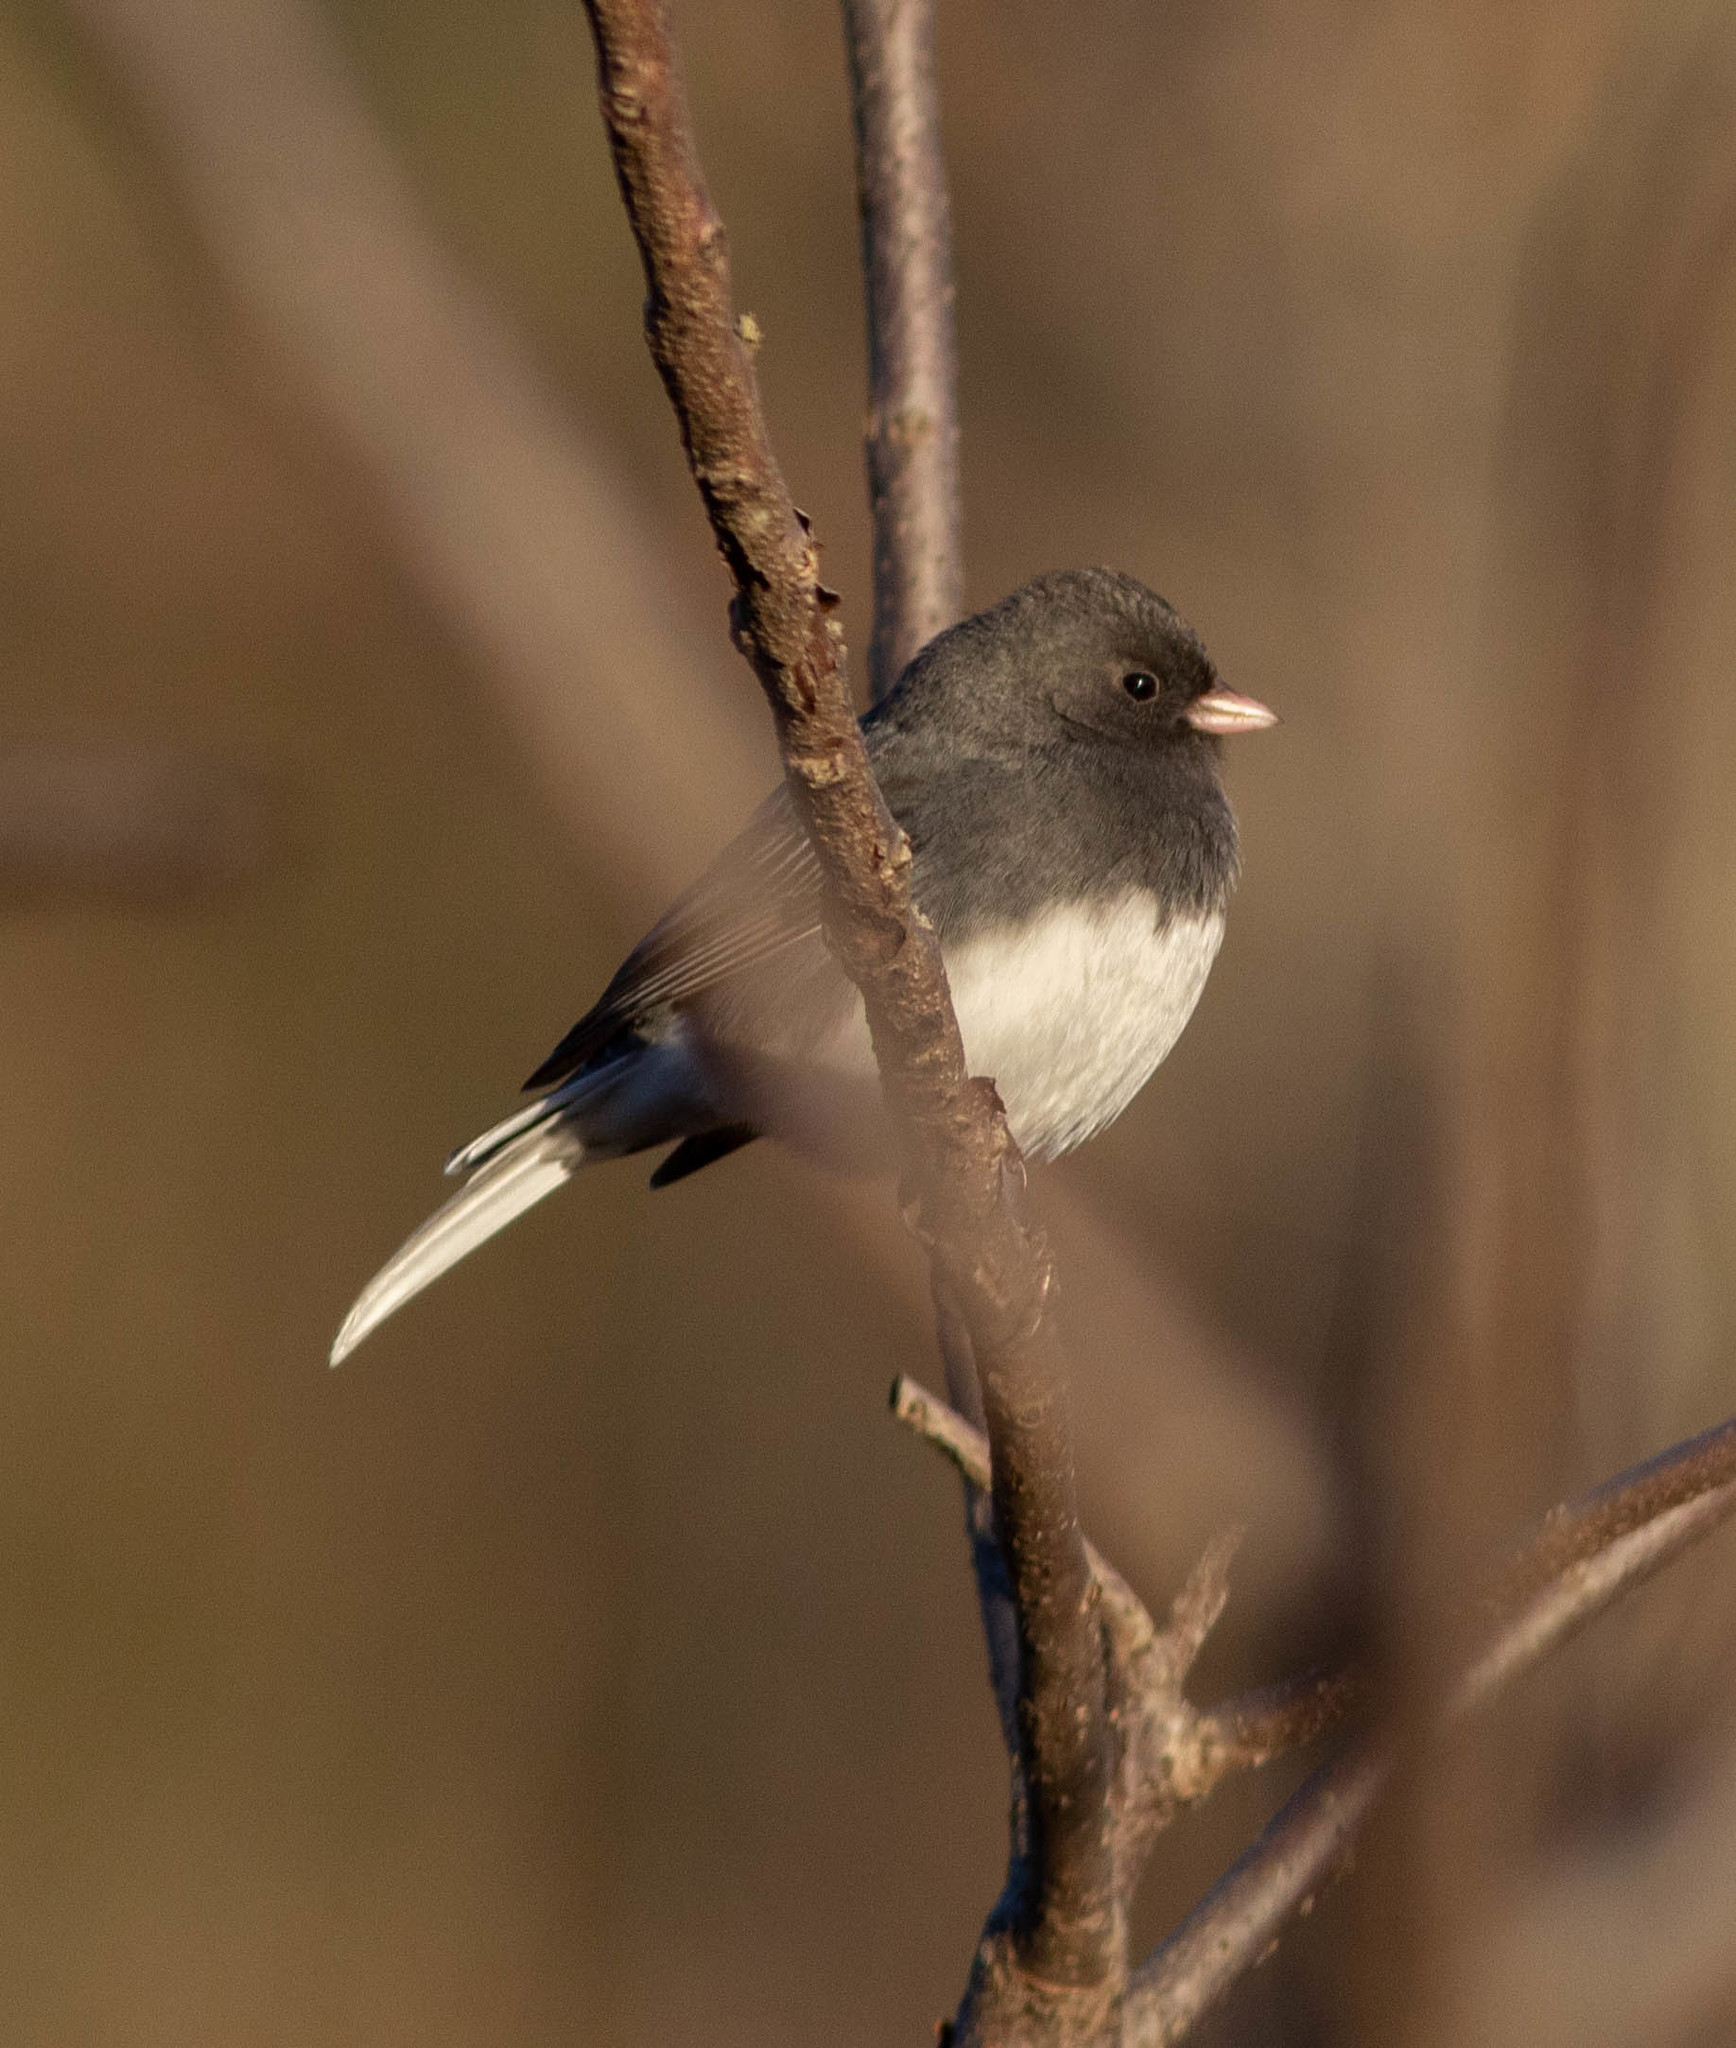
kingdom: Animalia
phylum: Chordata
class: Aves
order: Passeriformes
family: Passerellidae
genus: Junco
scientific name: Junco hyemalis
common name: Dark-eyed junco
